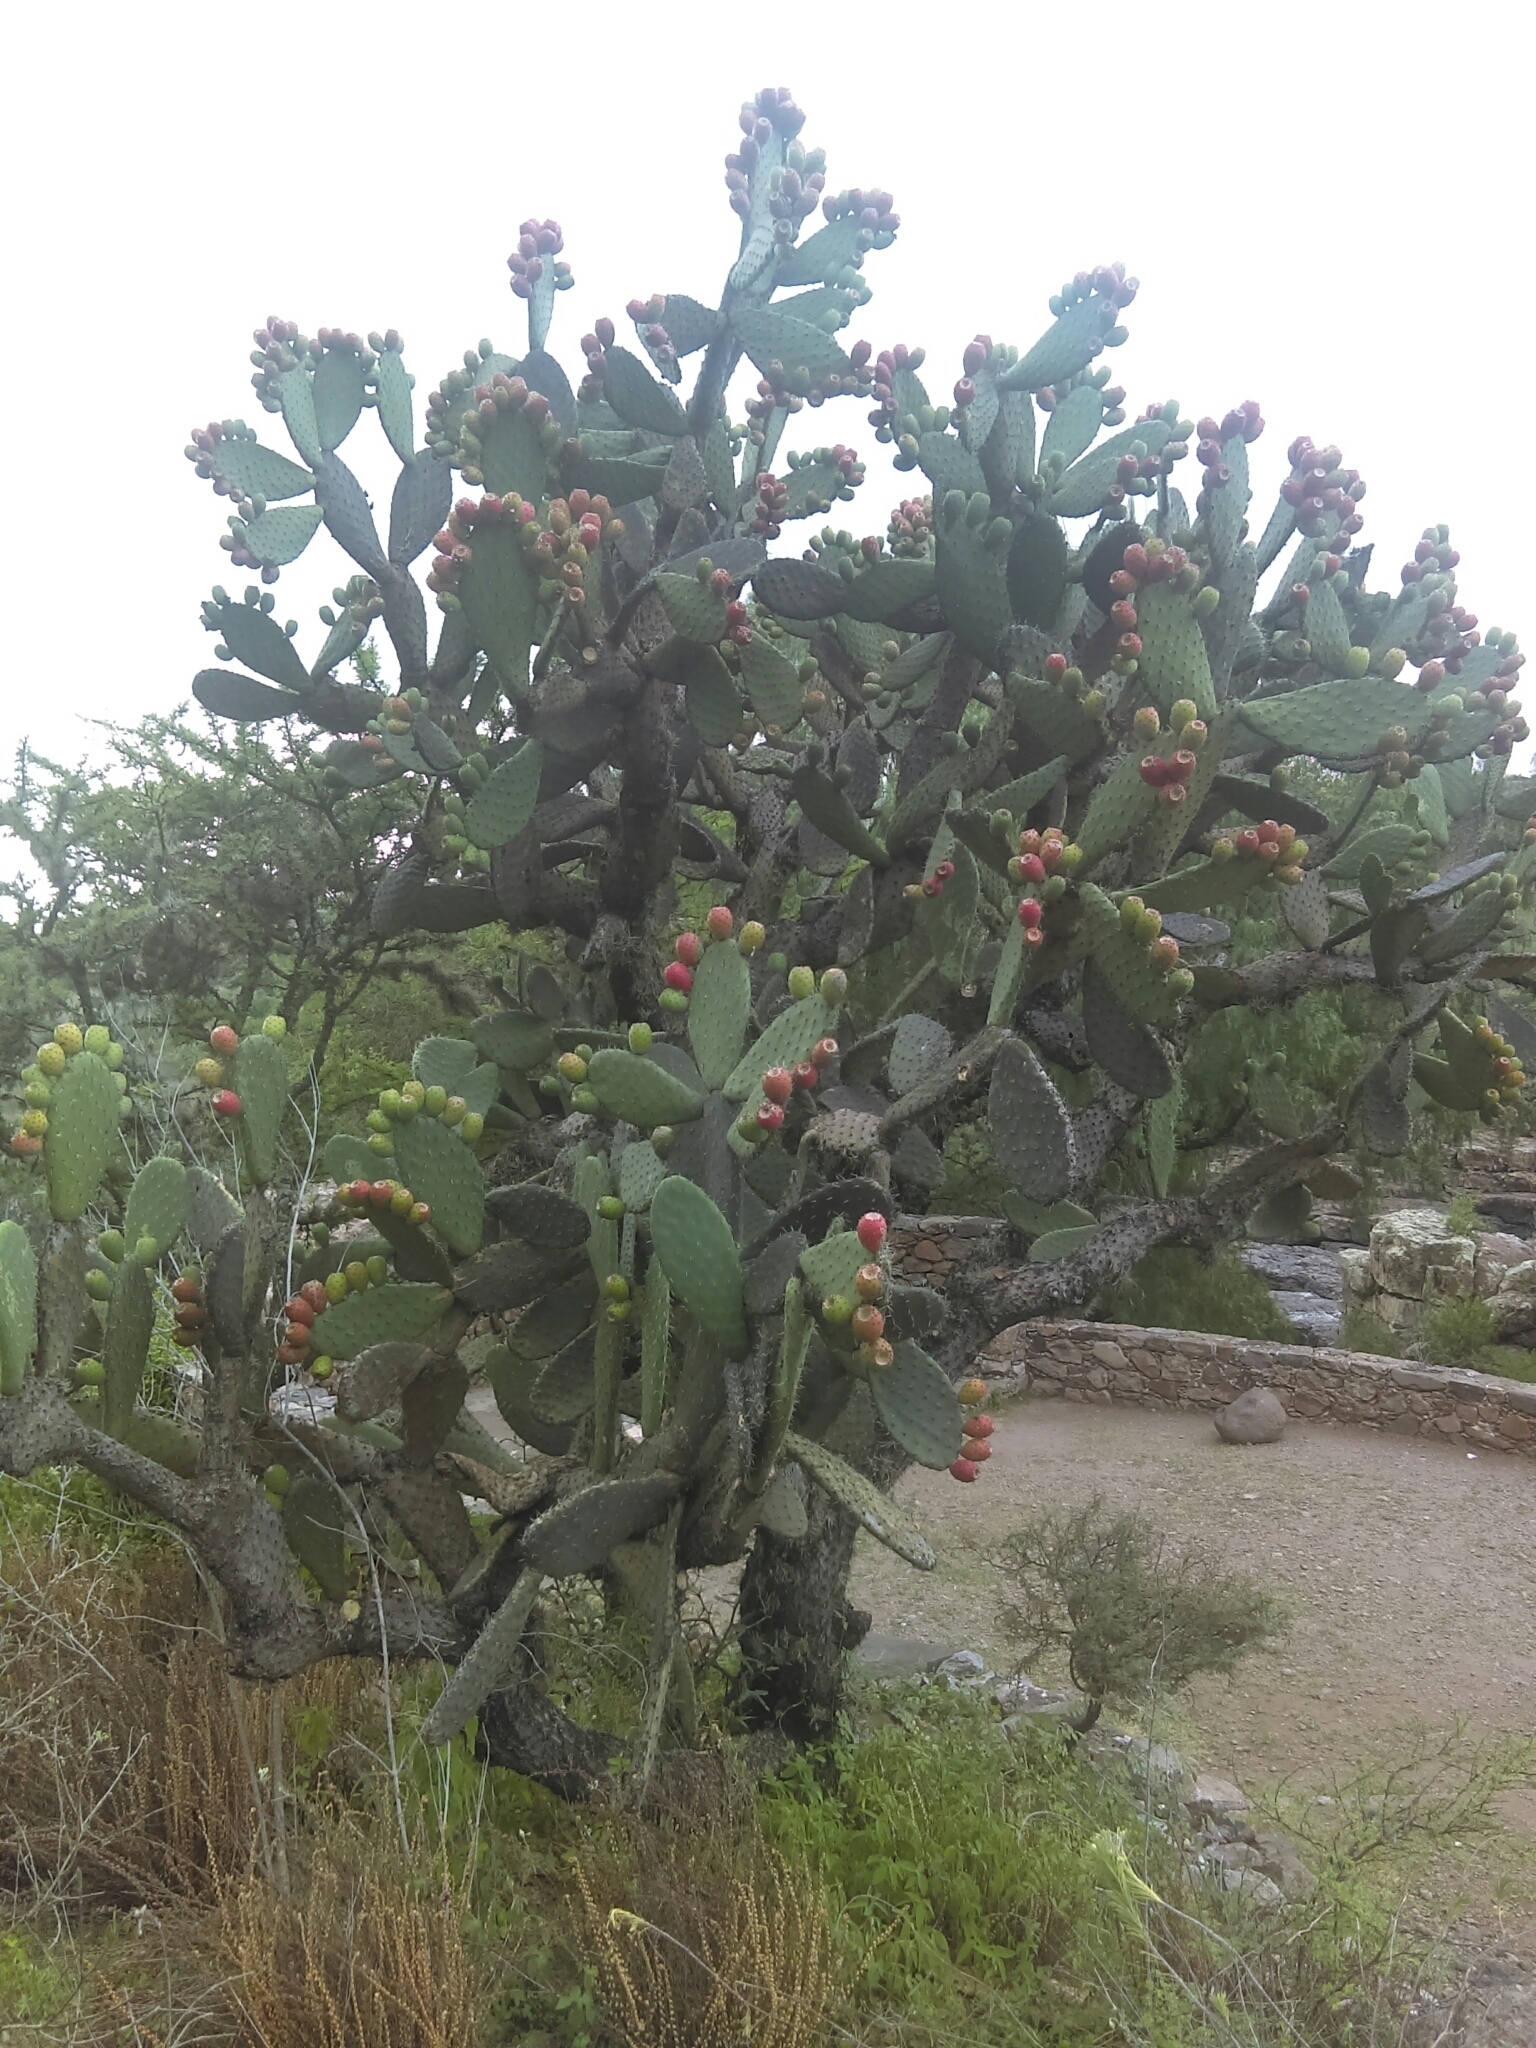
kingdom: Plantae
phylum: Tracheophyta
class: Magnoliopsida
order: Caryophyllales
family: Cactaceae
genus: Opuntia
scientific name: Opuntia tomentosa
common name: Woollyjoint pricklypear
